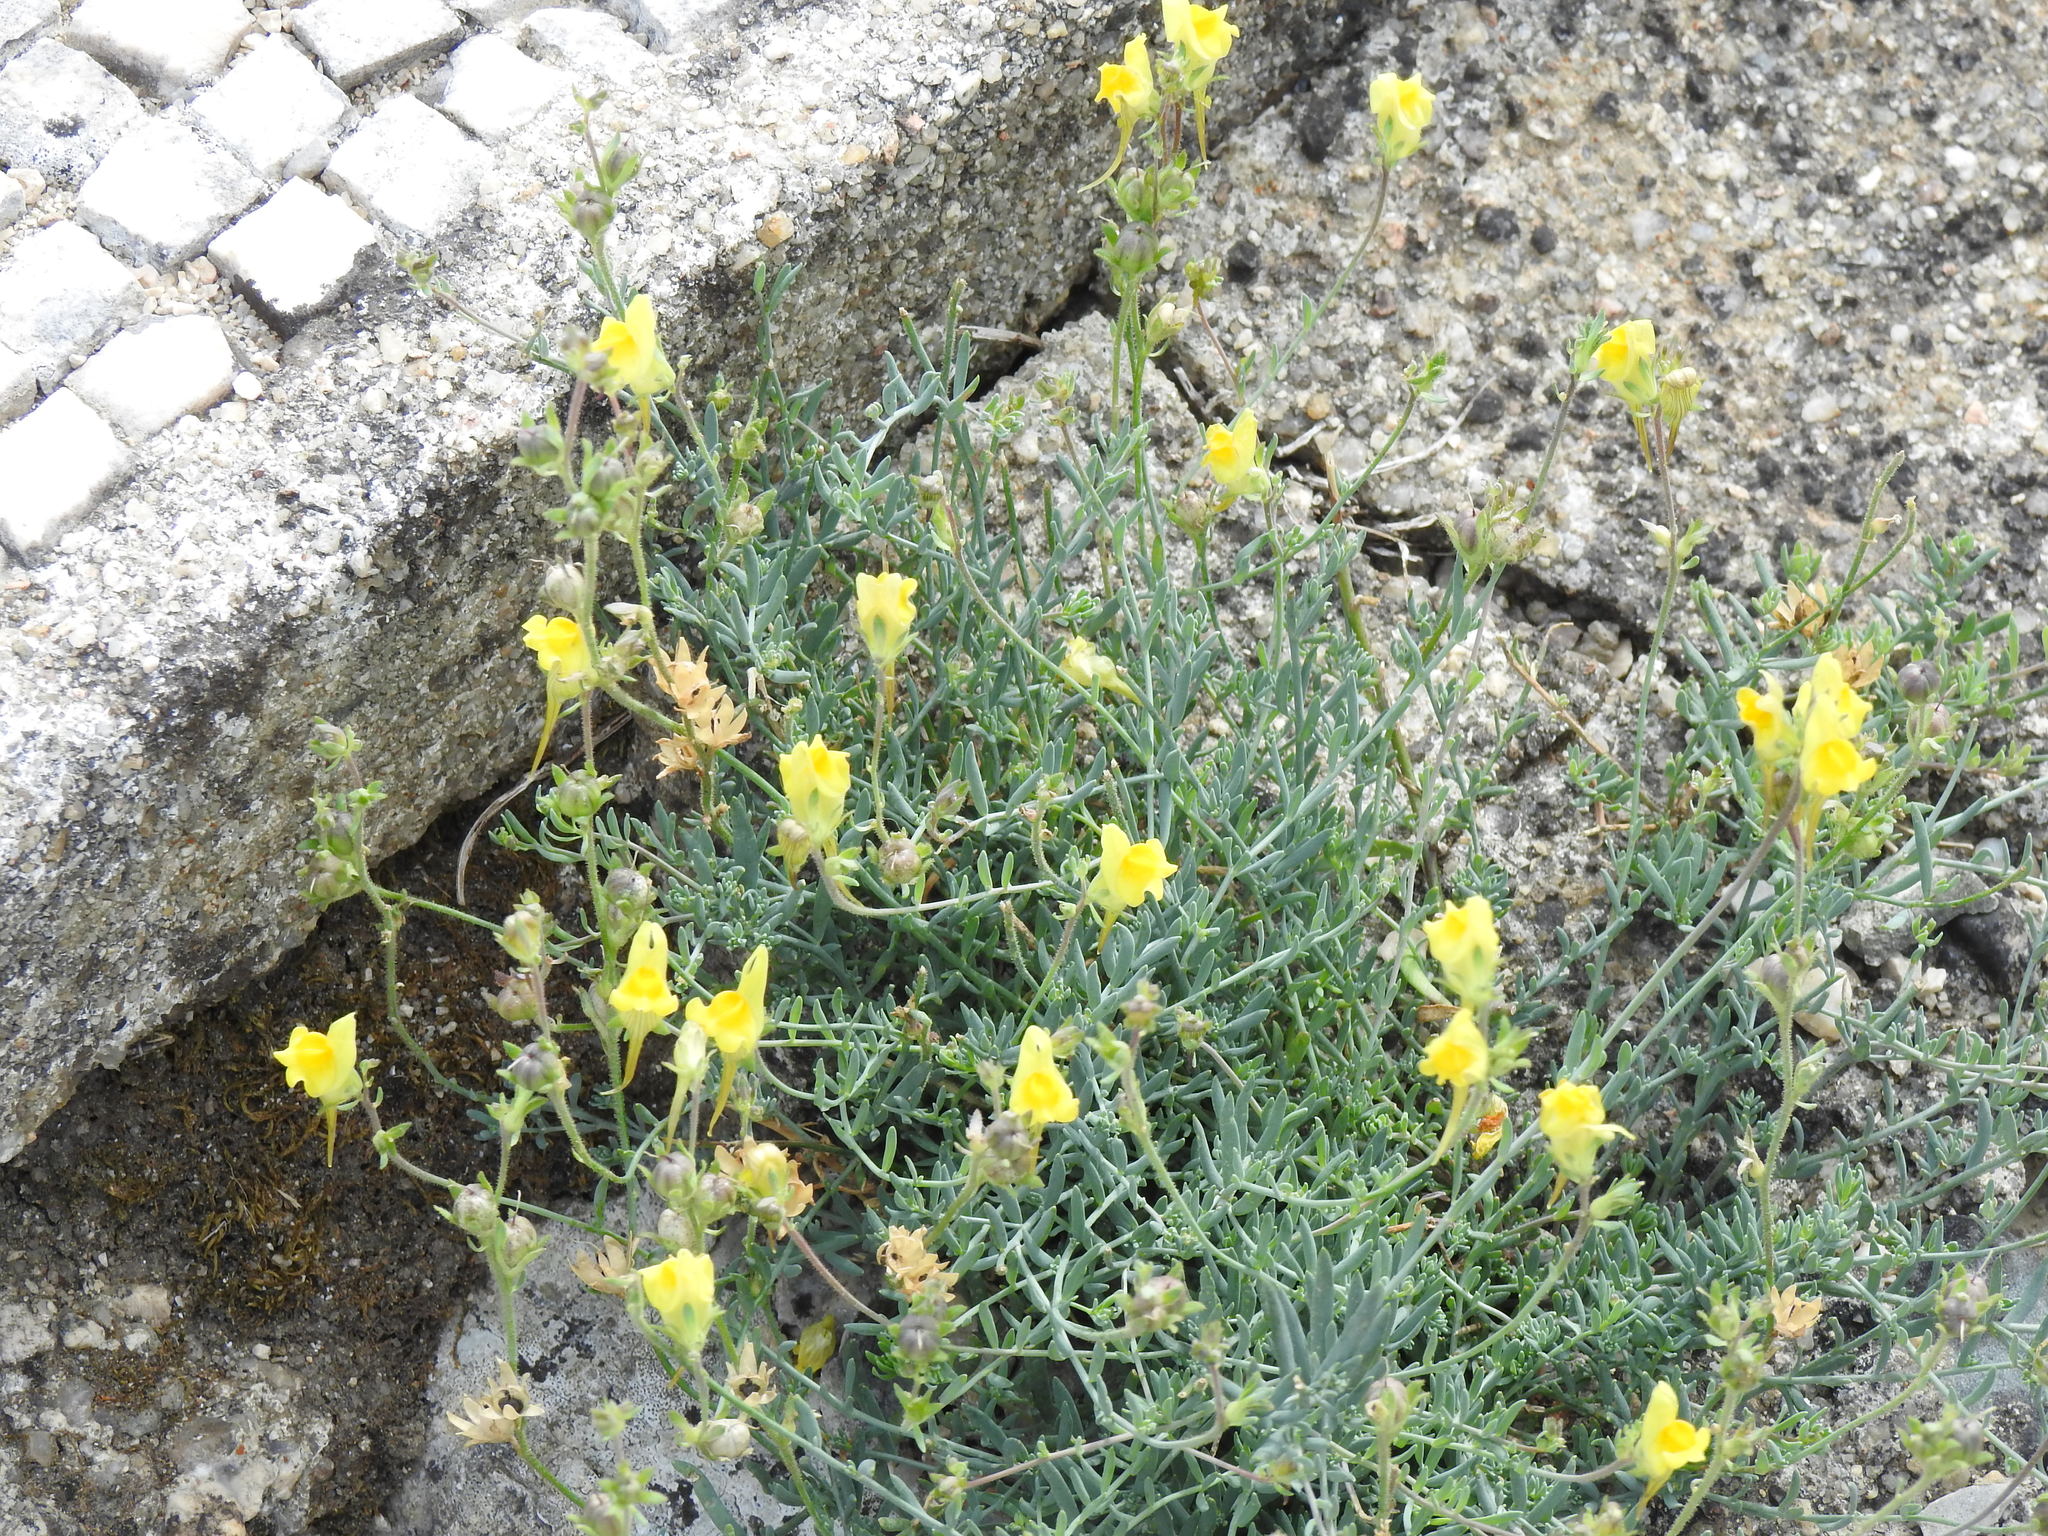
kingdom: Plantae
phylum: Tracheophyta
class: Magnoliopsida
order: Lamiales
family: Plantaginaceae
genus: Linaria
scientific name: Linaria supina
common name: Prostrate toadflax
